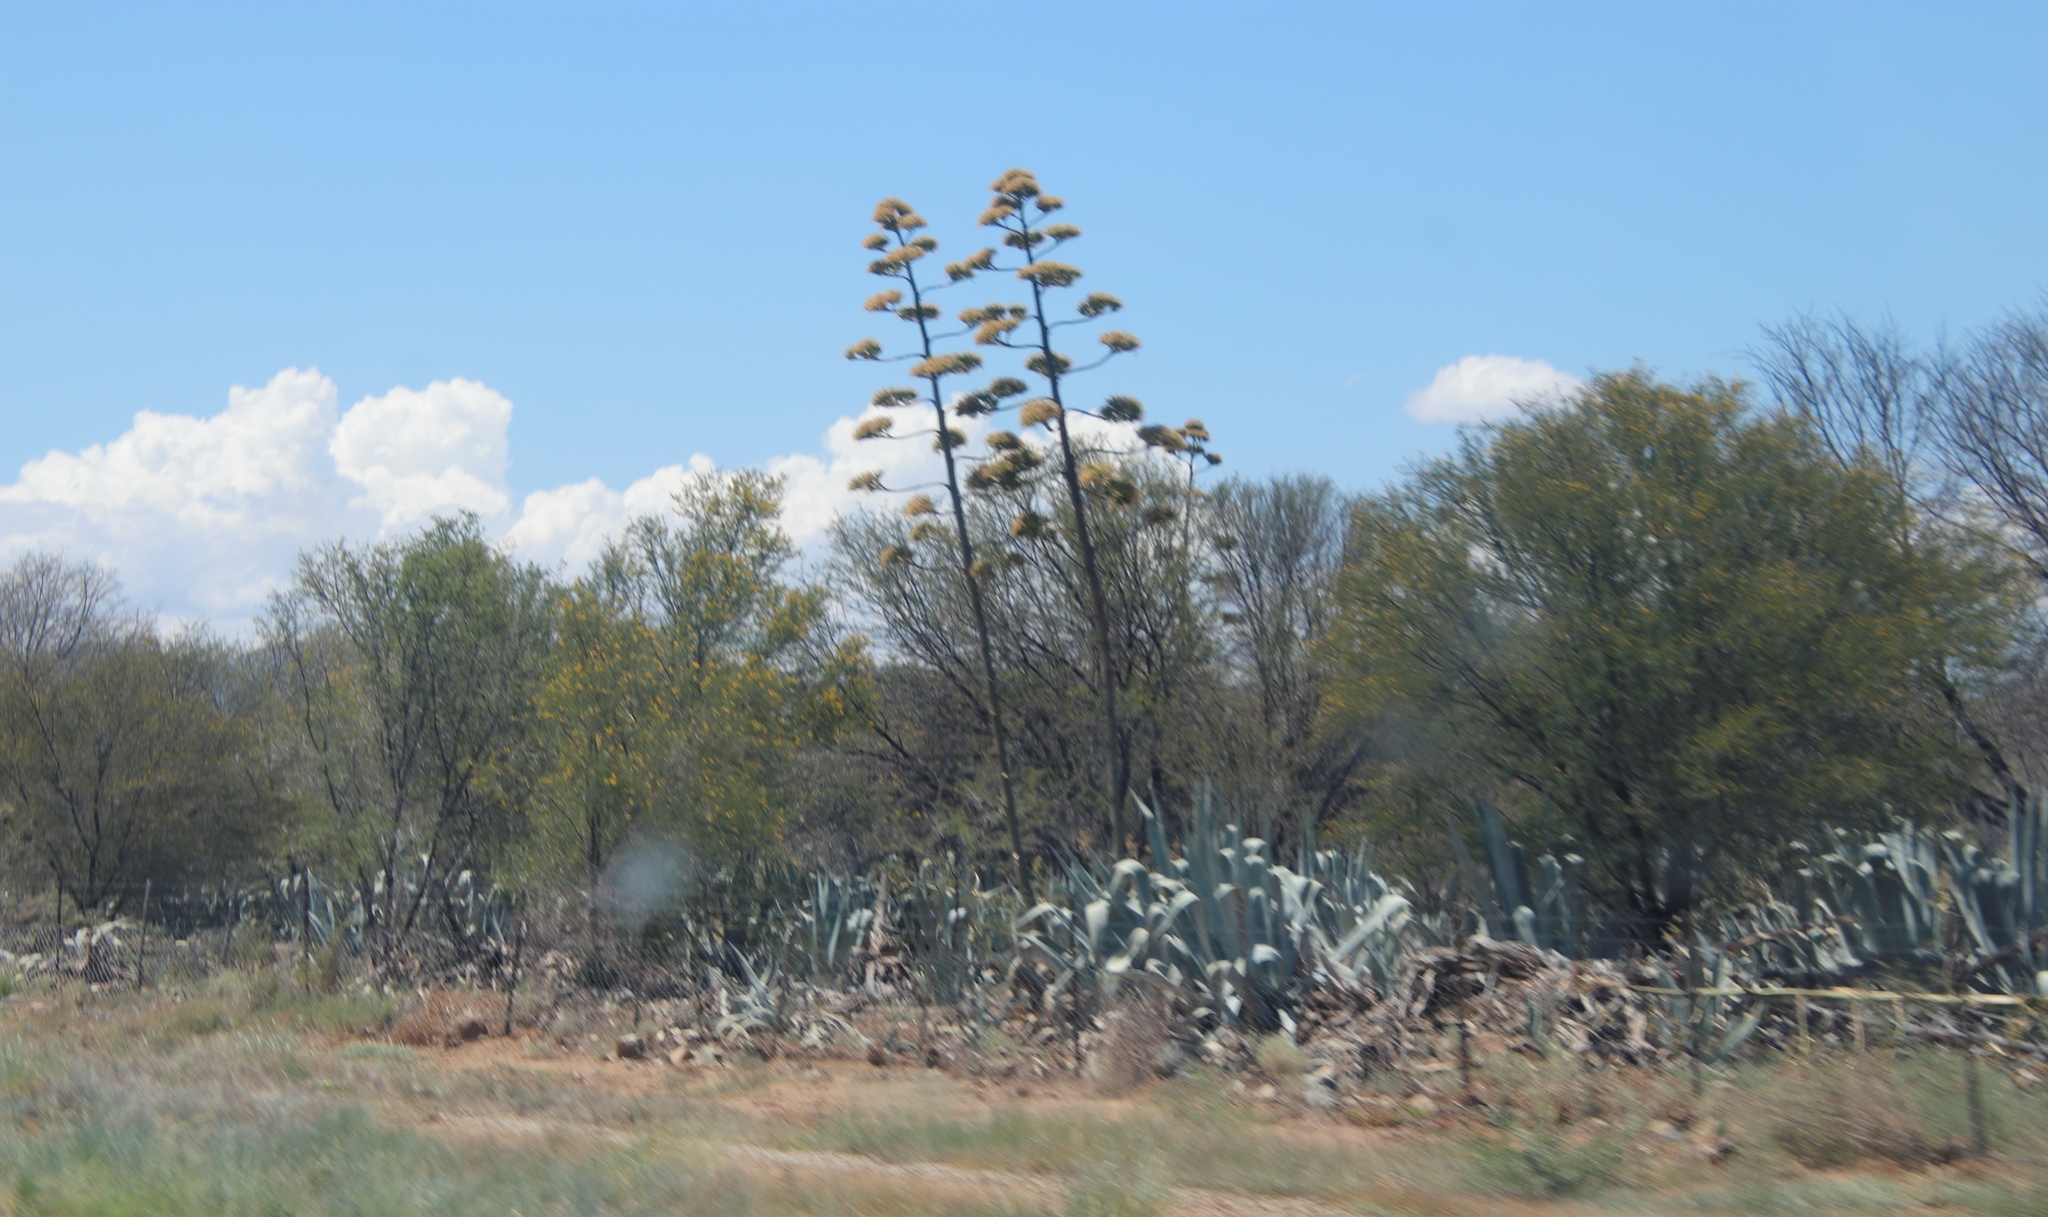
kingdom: Plantae
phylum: Tracheophyta
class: Liliopsida
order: Asparagales
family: Asparagaceae
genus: Agave
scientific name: Agave americana
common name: Centuryplant
